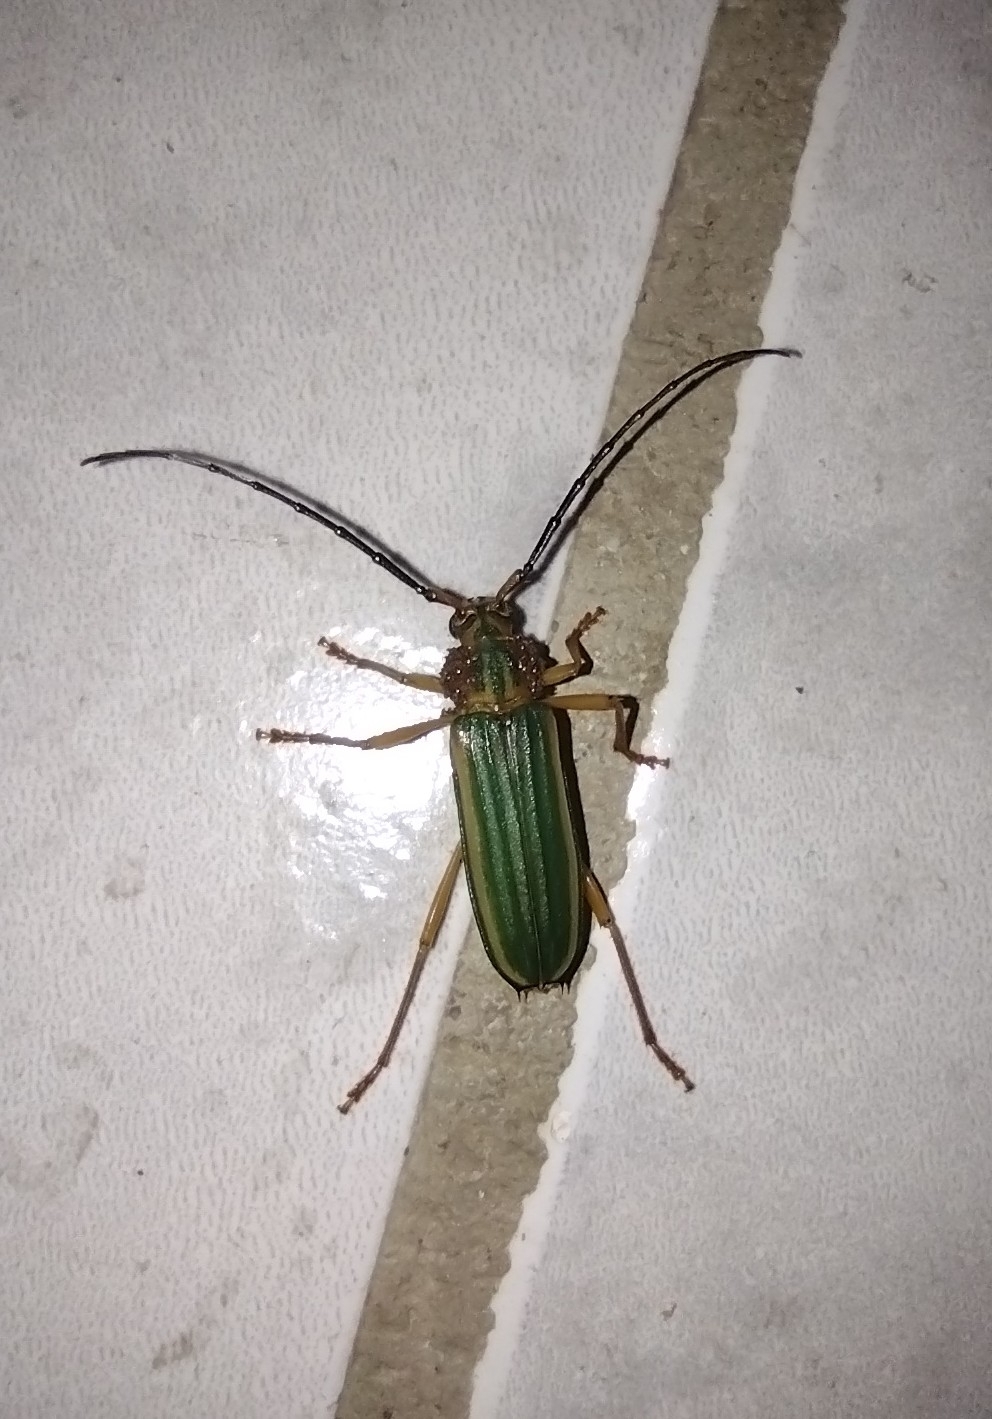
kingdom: Animalia
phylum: Arthropoda
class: Insecta
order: Coleoptera
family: Cerambycidae
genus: Chlorida
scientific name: Chlorida festiva
